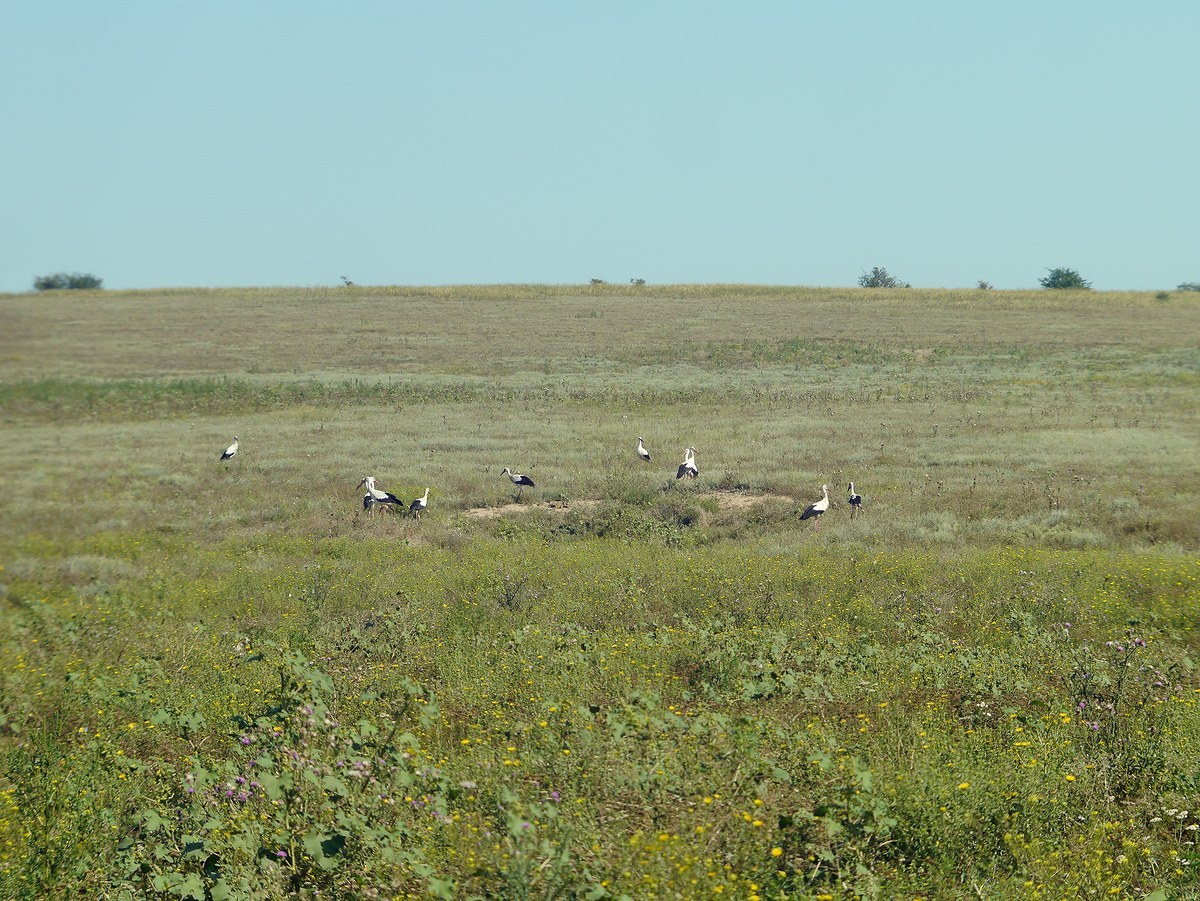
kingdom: Animalia
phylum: Chordata
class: Aves
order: Ciconiiformes
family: Ciconiidae
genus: Ciconia
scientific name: Ciconia ciconia
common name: White stork
